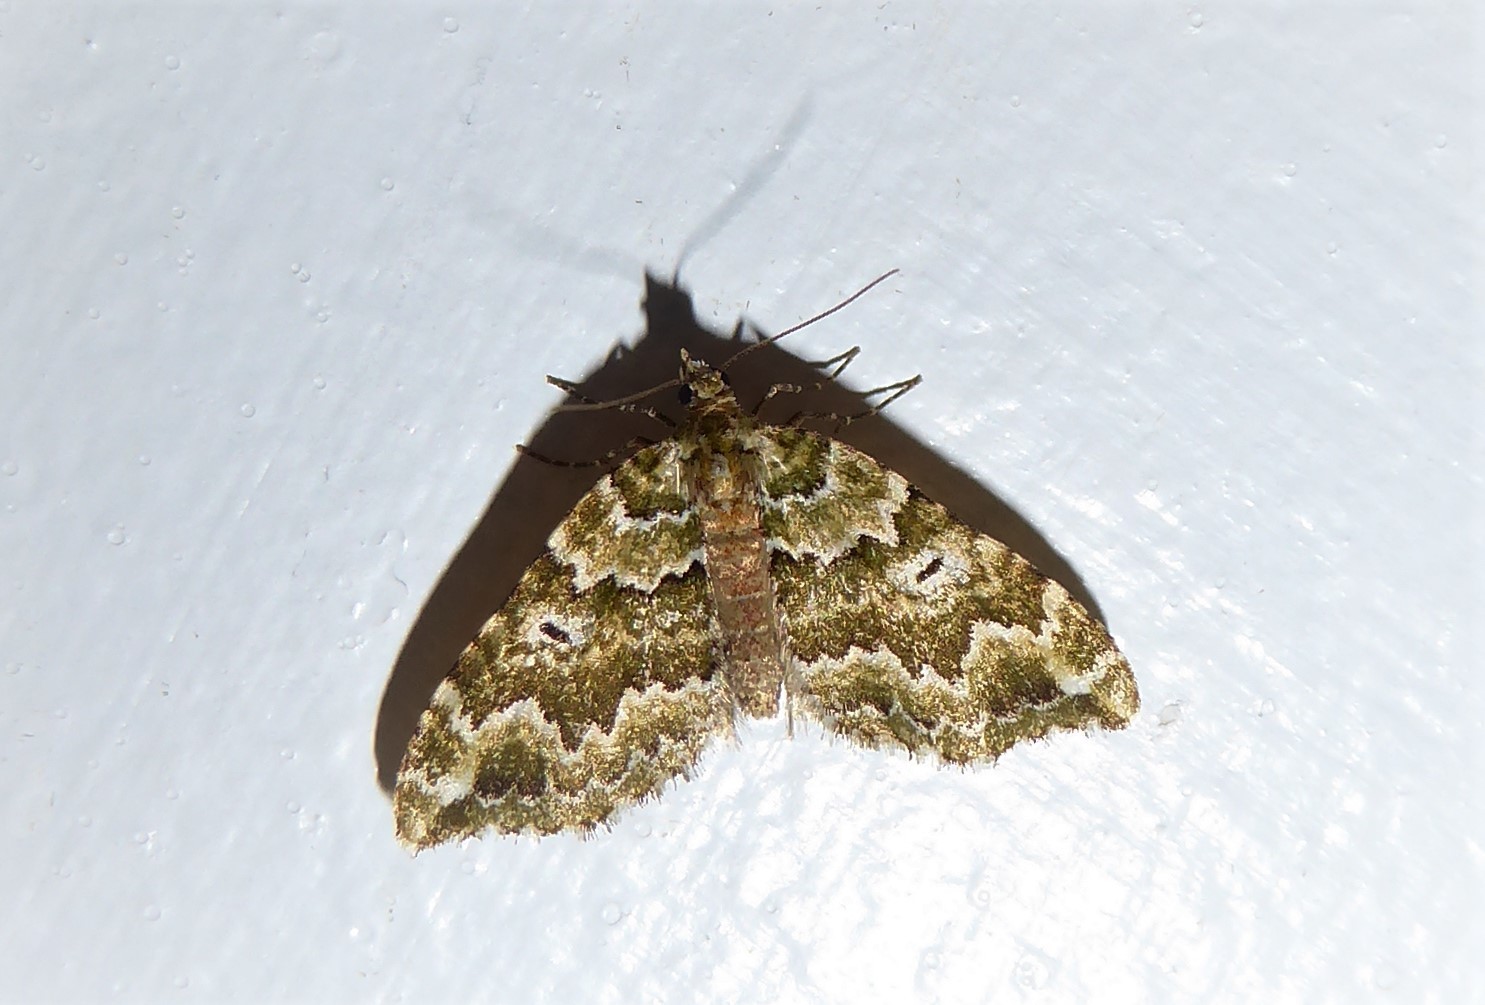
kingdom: Animalia
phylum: Arthropoda
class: Insecta
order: Lepidoptera
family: Geometridae
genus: Asaphodes
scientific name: Asaphodes beata
